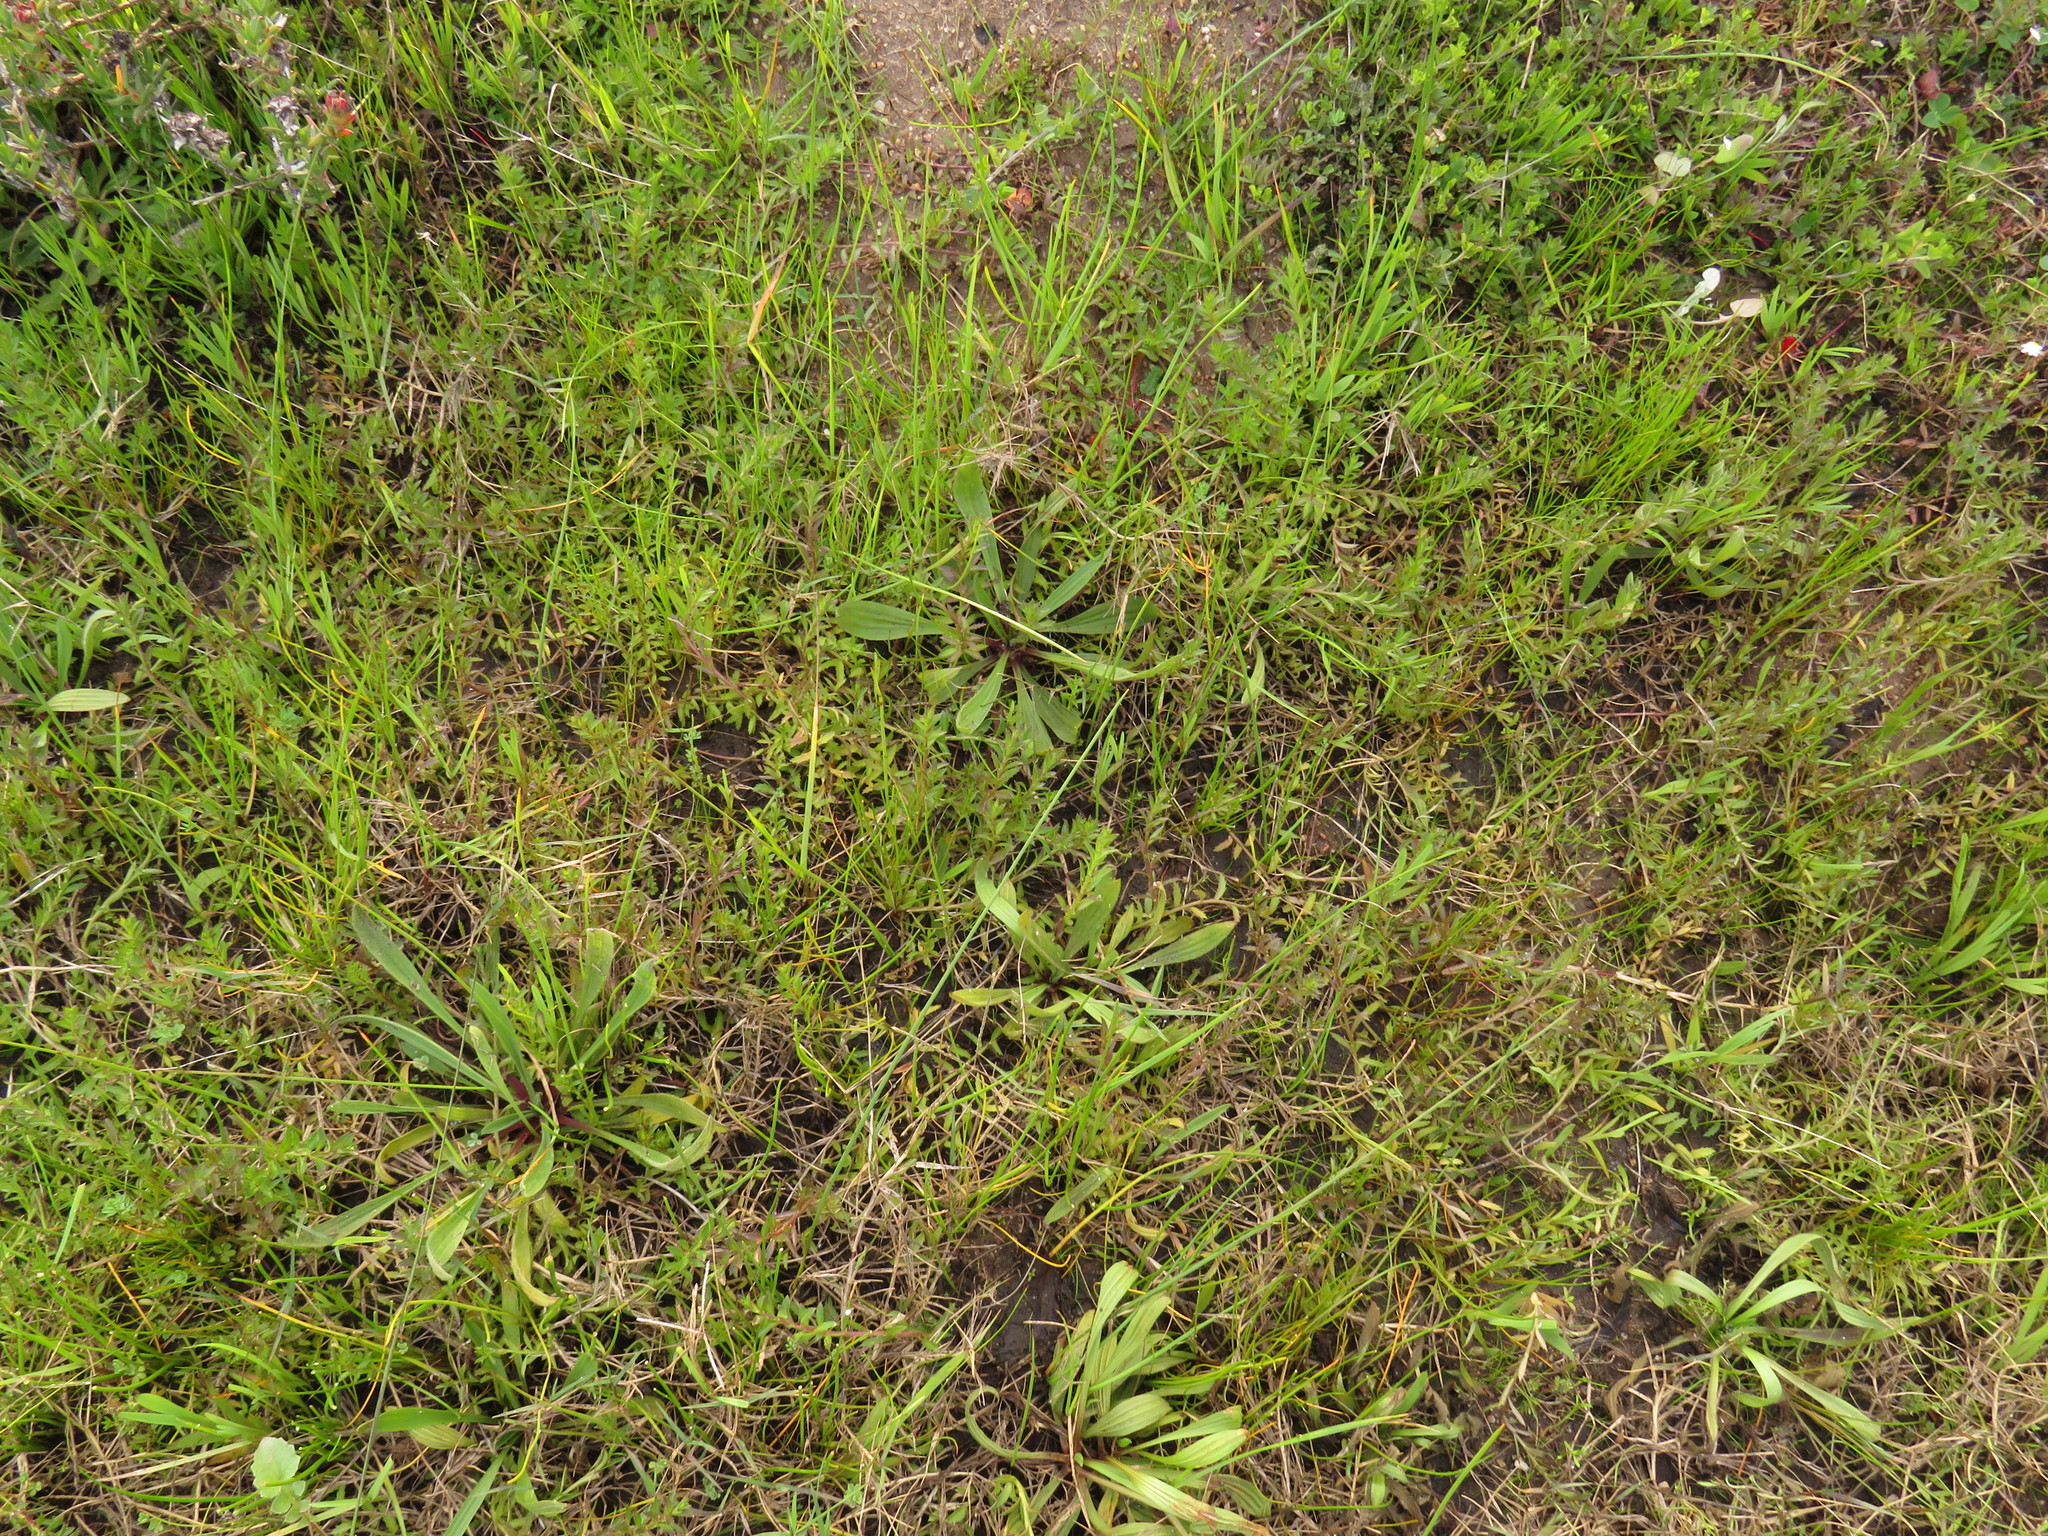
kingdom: Plantae
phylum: Tracheophyta
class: Magnoliopsida
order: Asterales
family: Campanulaceae
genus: Monopsis
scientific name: Monopsis lutea
